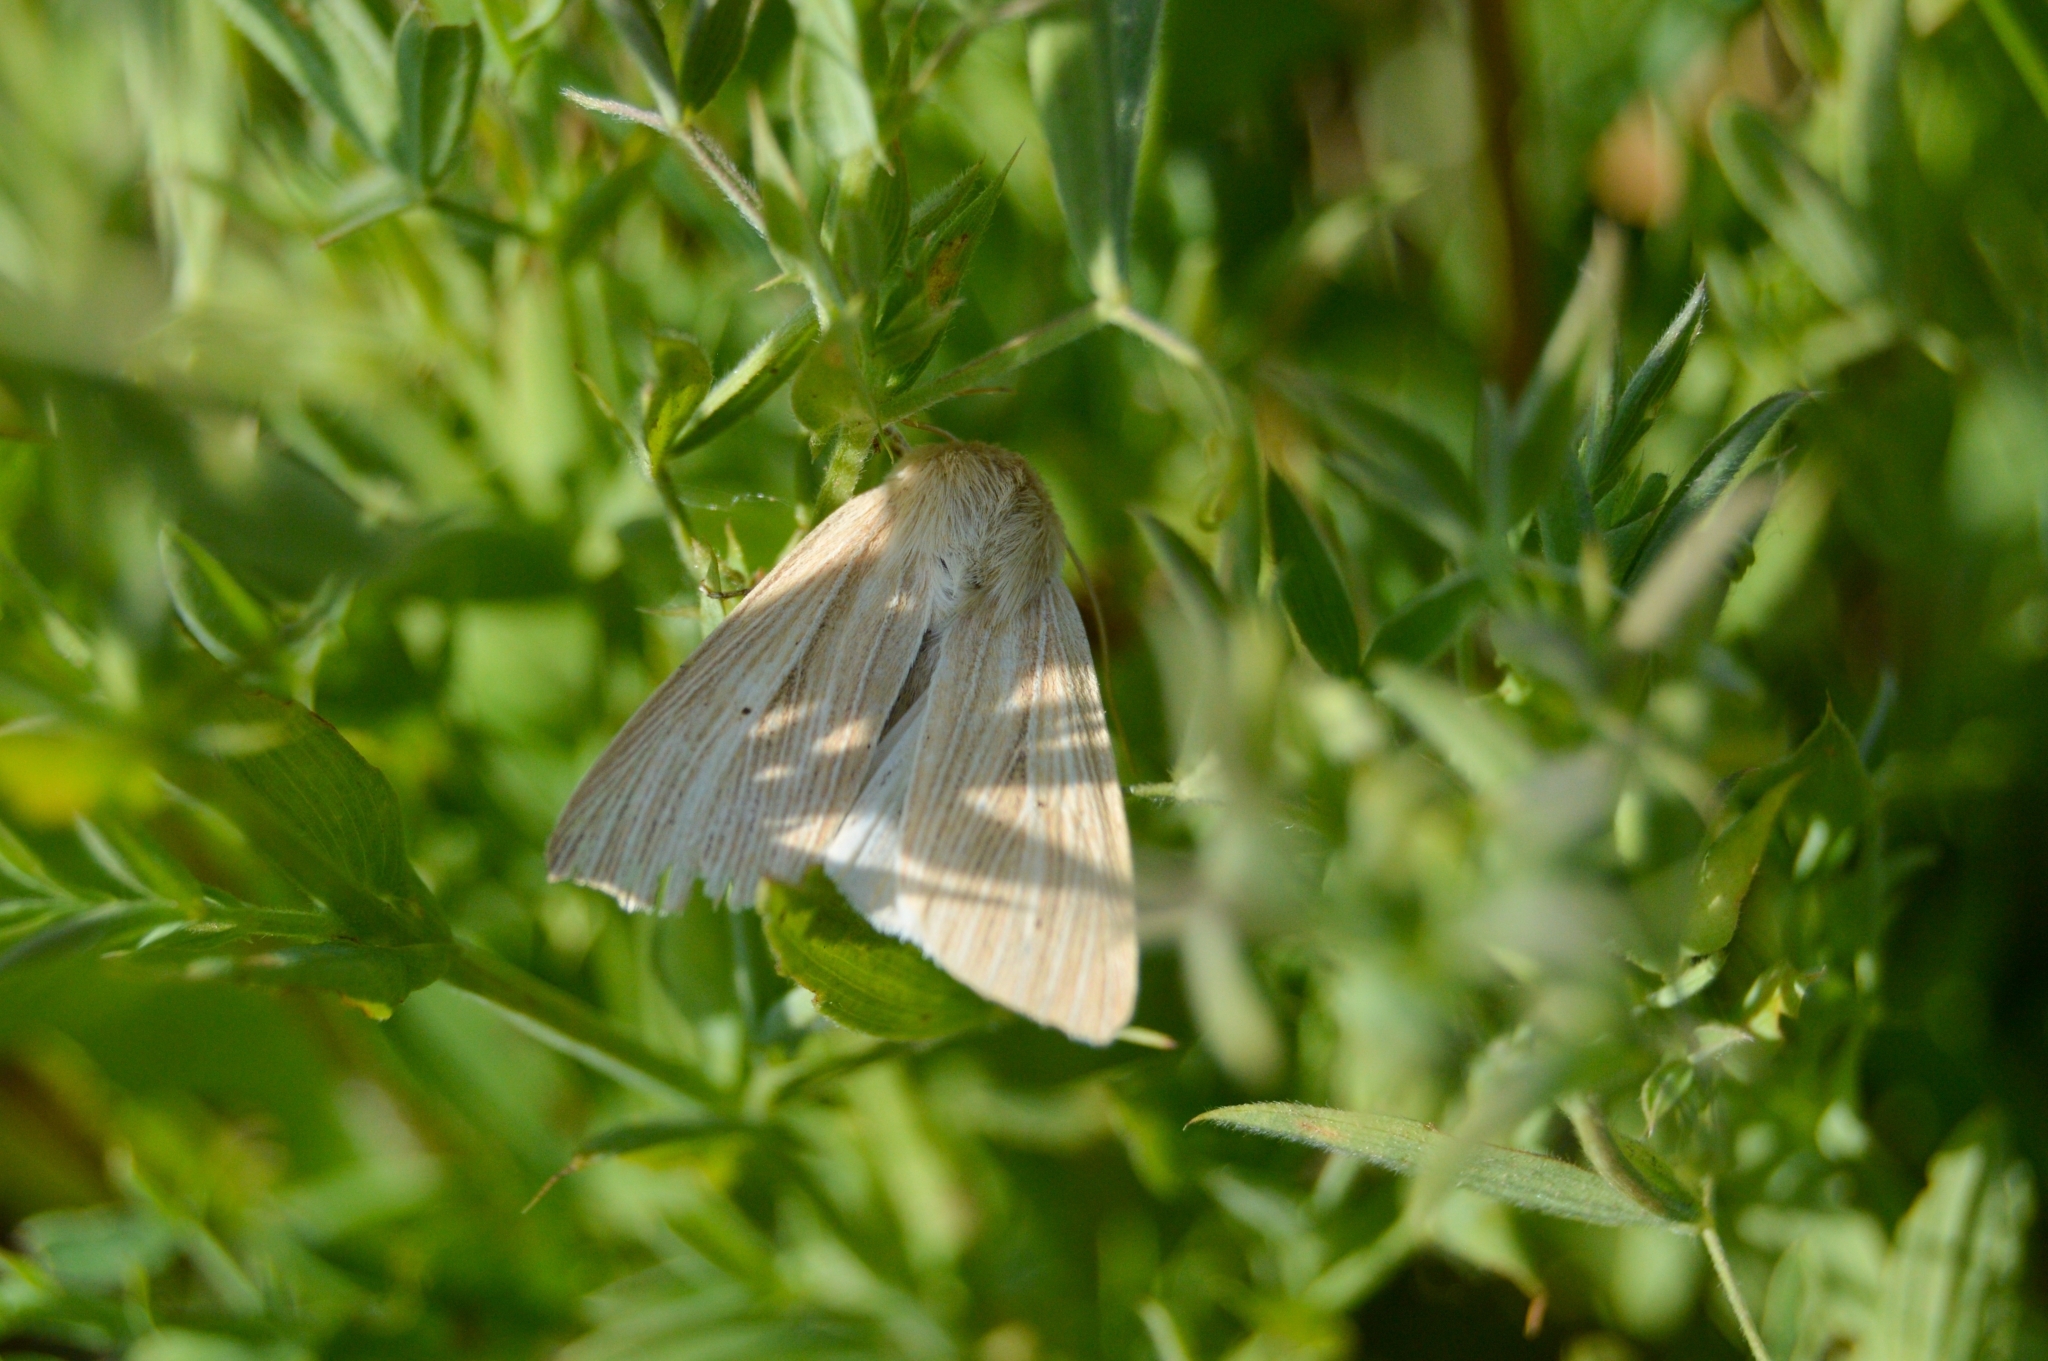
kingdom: Animalia
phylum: Arthropoda
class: Insecta
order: Lepidoptera
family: Noctuidae
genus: Mythimna
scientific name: Mythimna impura
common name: Smoky wainscot
